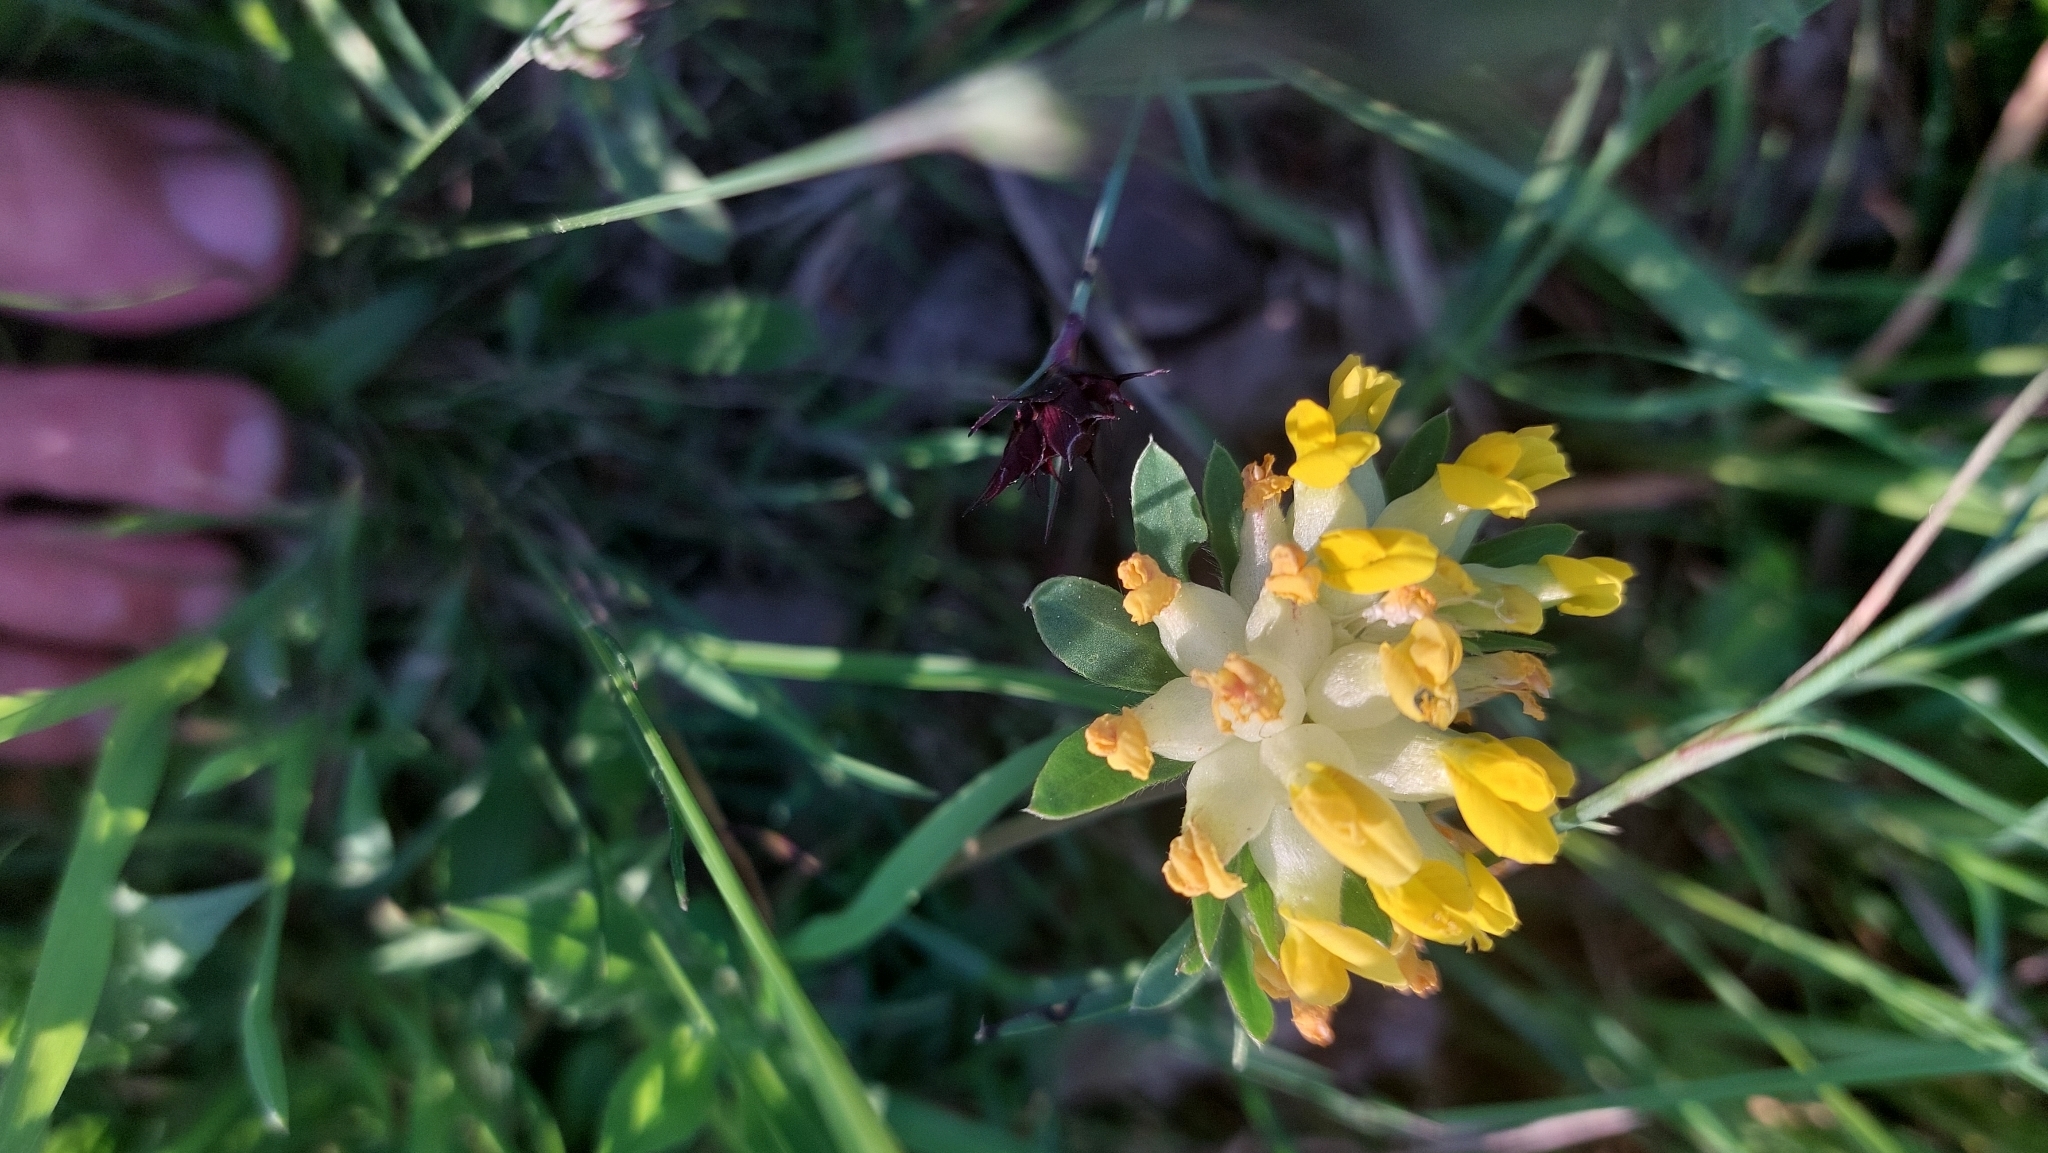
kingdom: Plantae
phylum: Tracheophyta
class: Magnoliopsida
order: Fabales
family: Fabaceae
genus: Anthyllis
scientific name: Anthyllis vulneraria
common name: Kidney vetch
